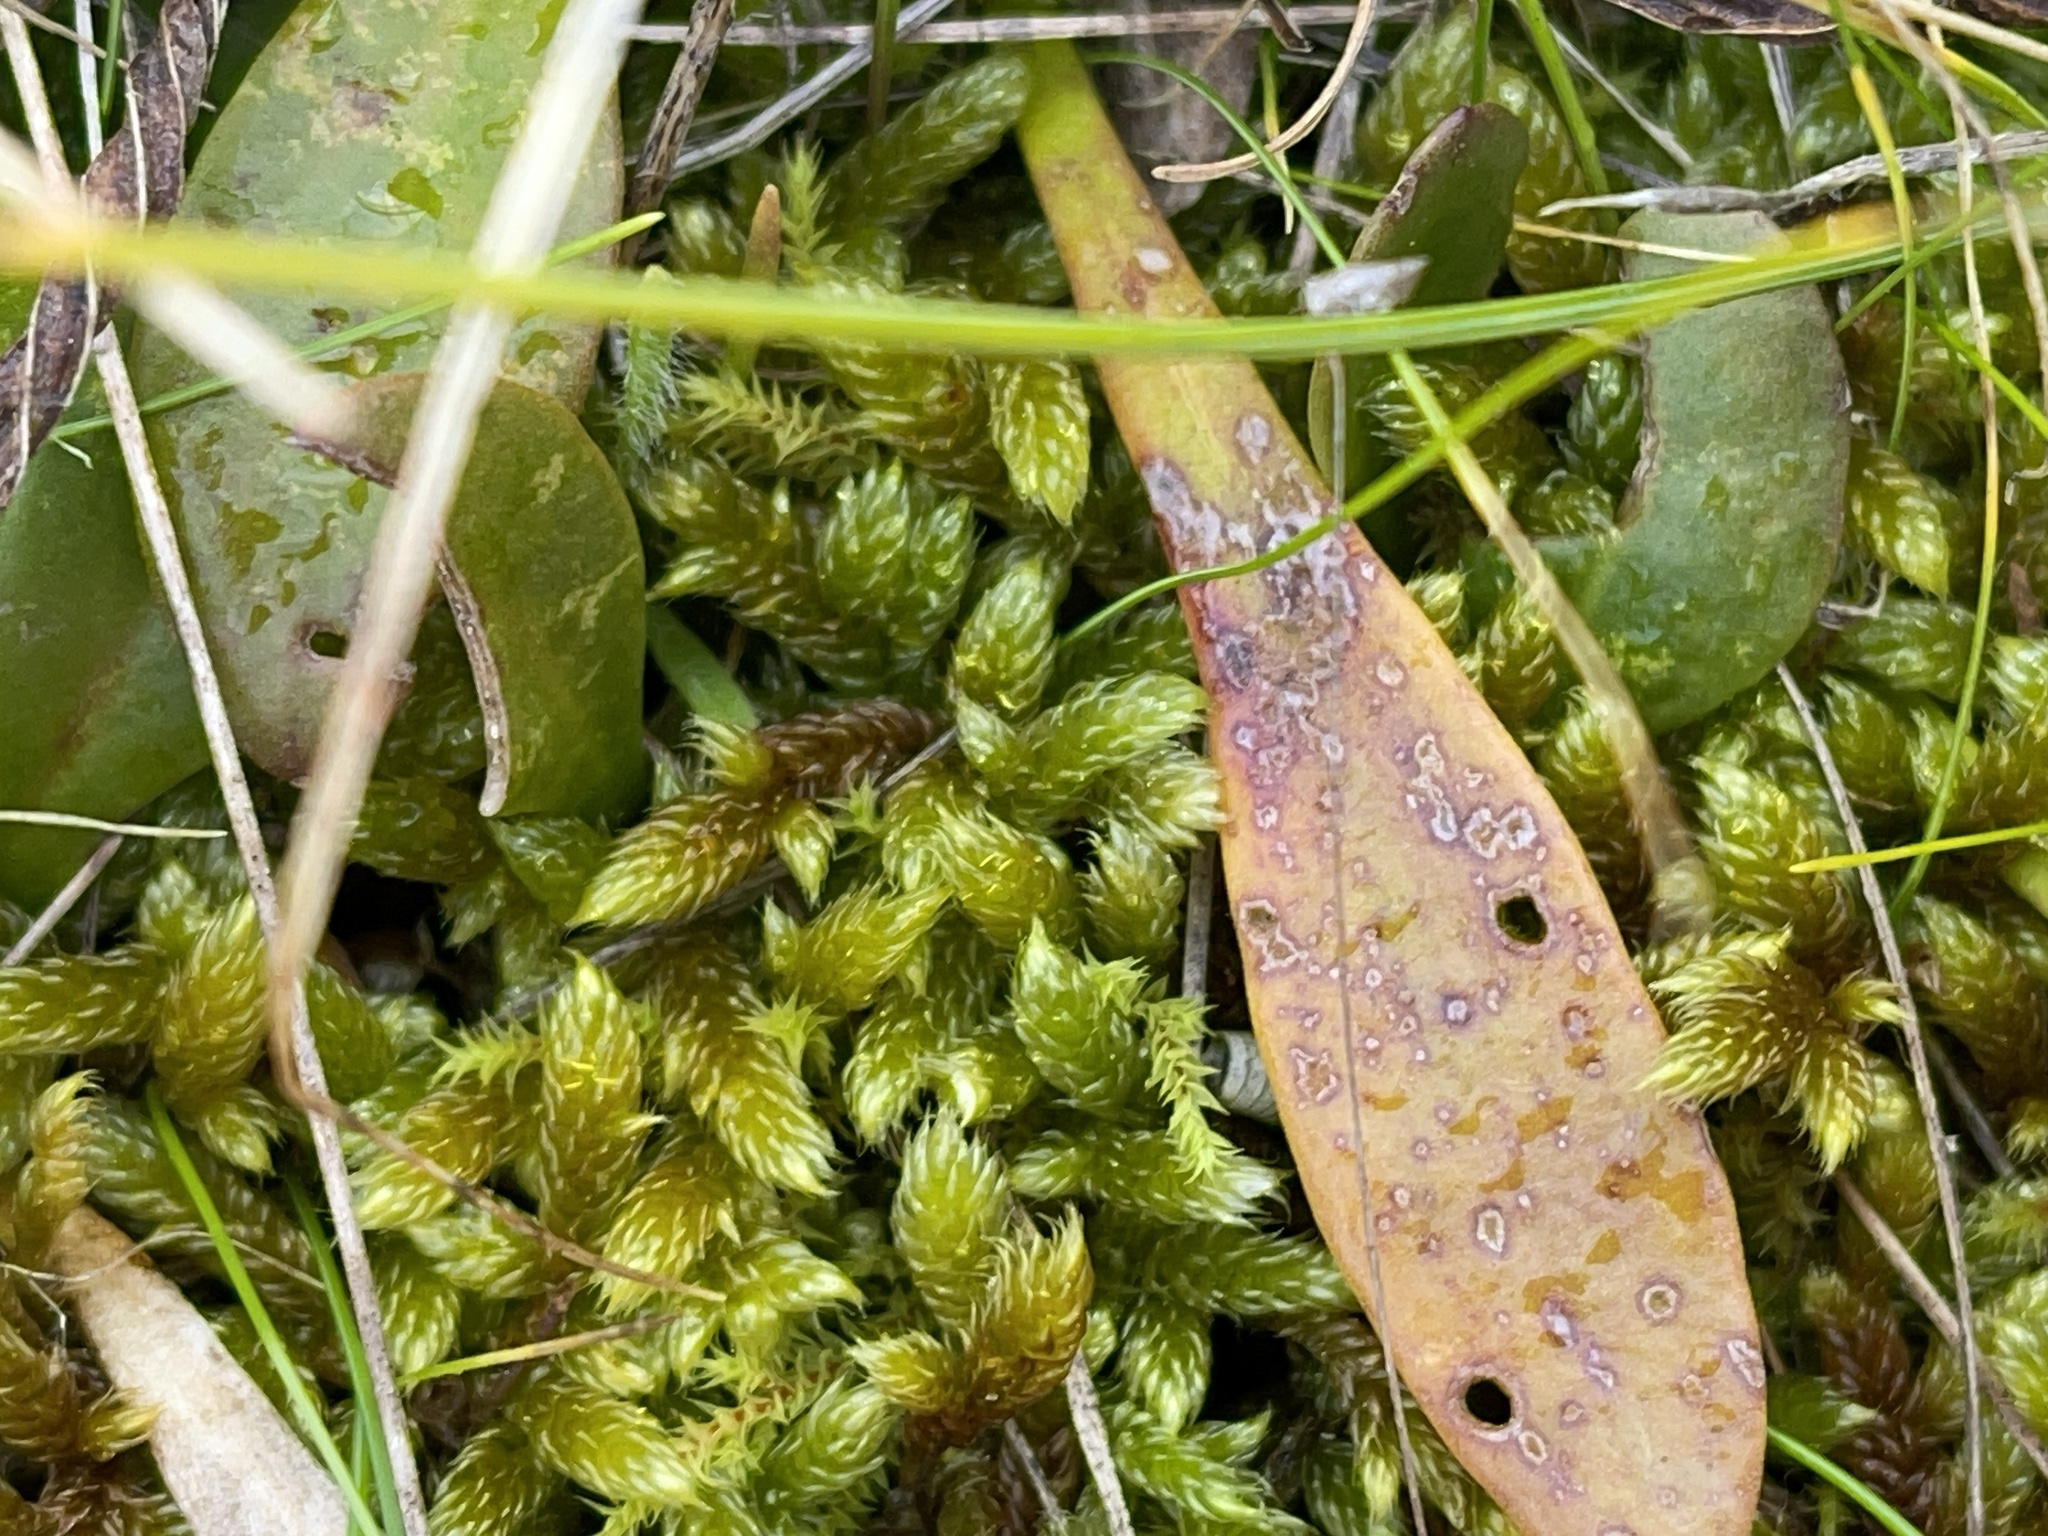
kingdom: Plantae
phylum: Bryophyta
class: Bryopsida
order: Hypnales
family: Hypnaceae
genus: Hypnum
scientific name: Hypnum cupressiforme
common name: Cypress-leaved plait-moss
